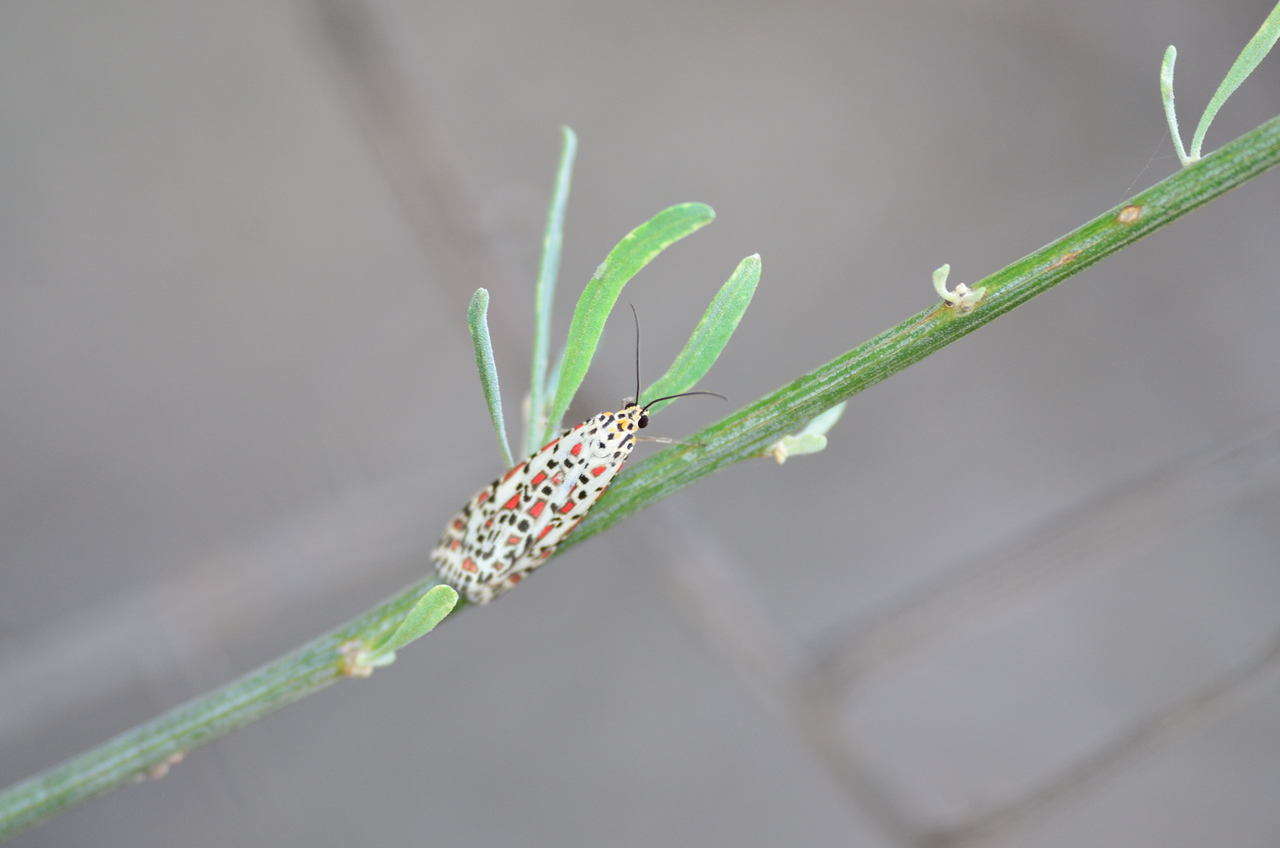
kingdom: Animalia
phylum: Arthropoda
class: Insecta
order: Lepidoptera
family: Erebidae
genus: Utetheisa
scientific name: Utetheisa pulchelloides
